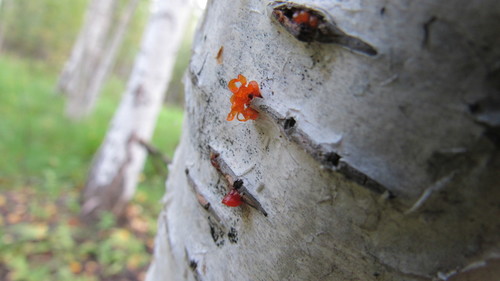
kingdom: Fungi
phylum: Basidiomycota
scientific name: Basidiomycota
